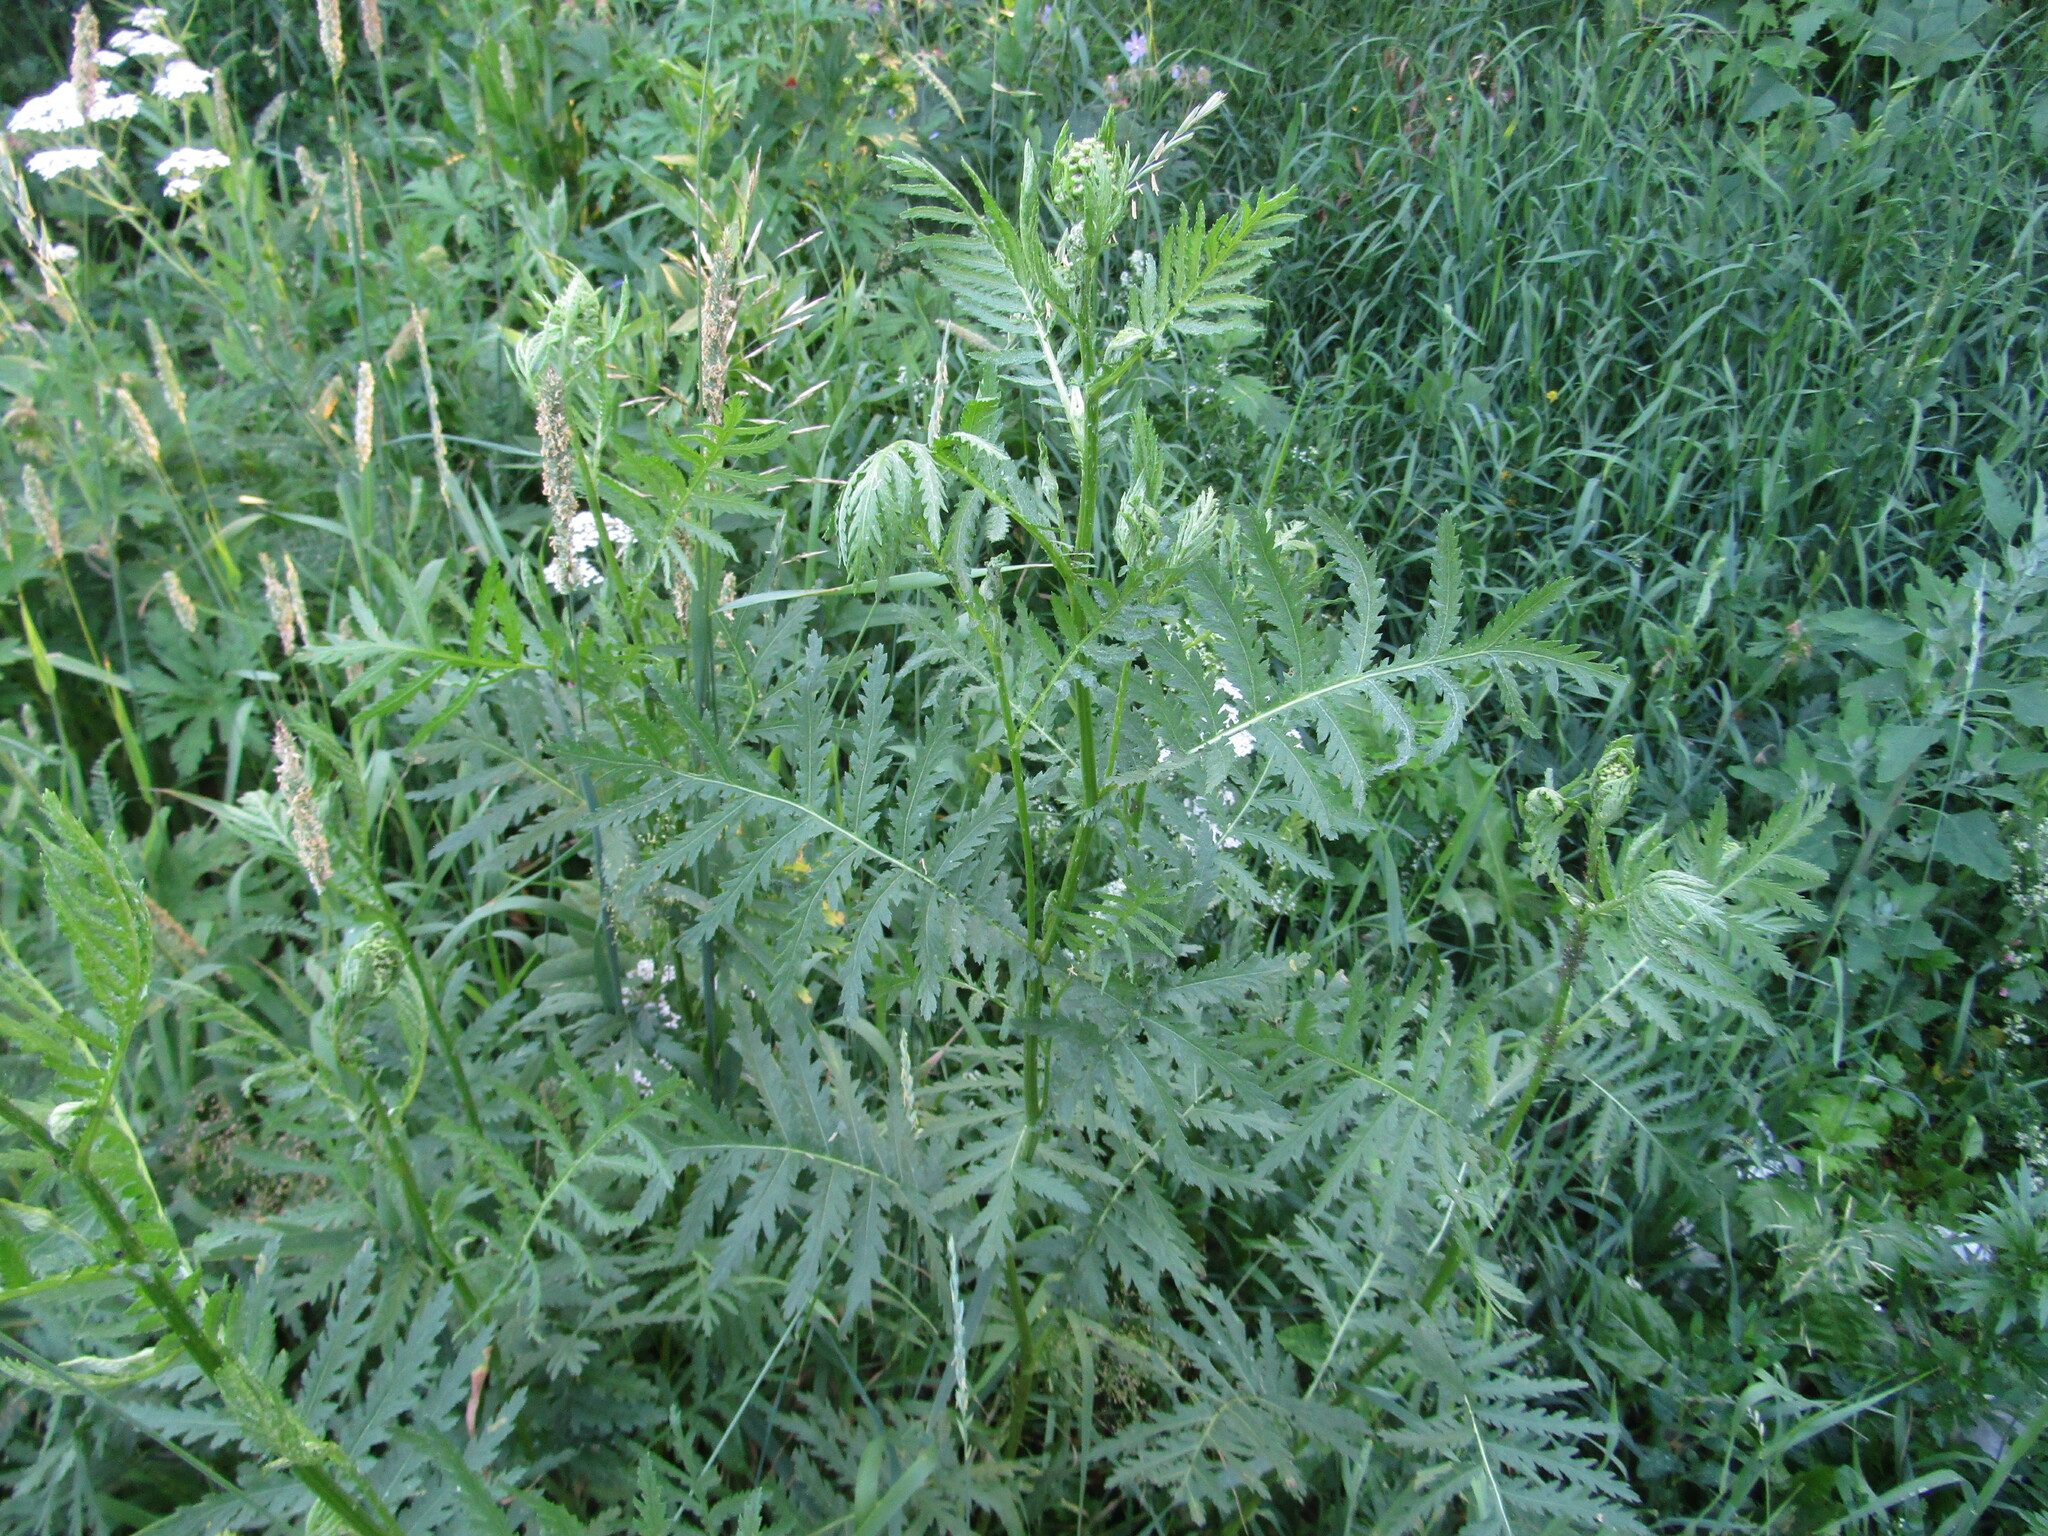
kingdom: Plantae
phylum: Tracheophyta
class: Magnoliopsida
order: Asterales
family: Asteraceae
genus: Tanacetum
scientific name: Tanacetum vulgare
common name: Common tansy
